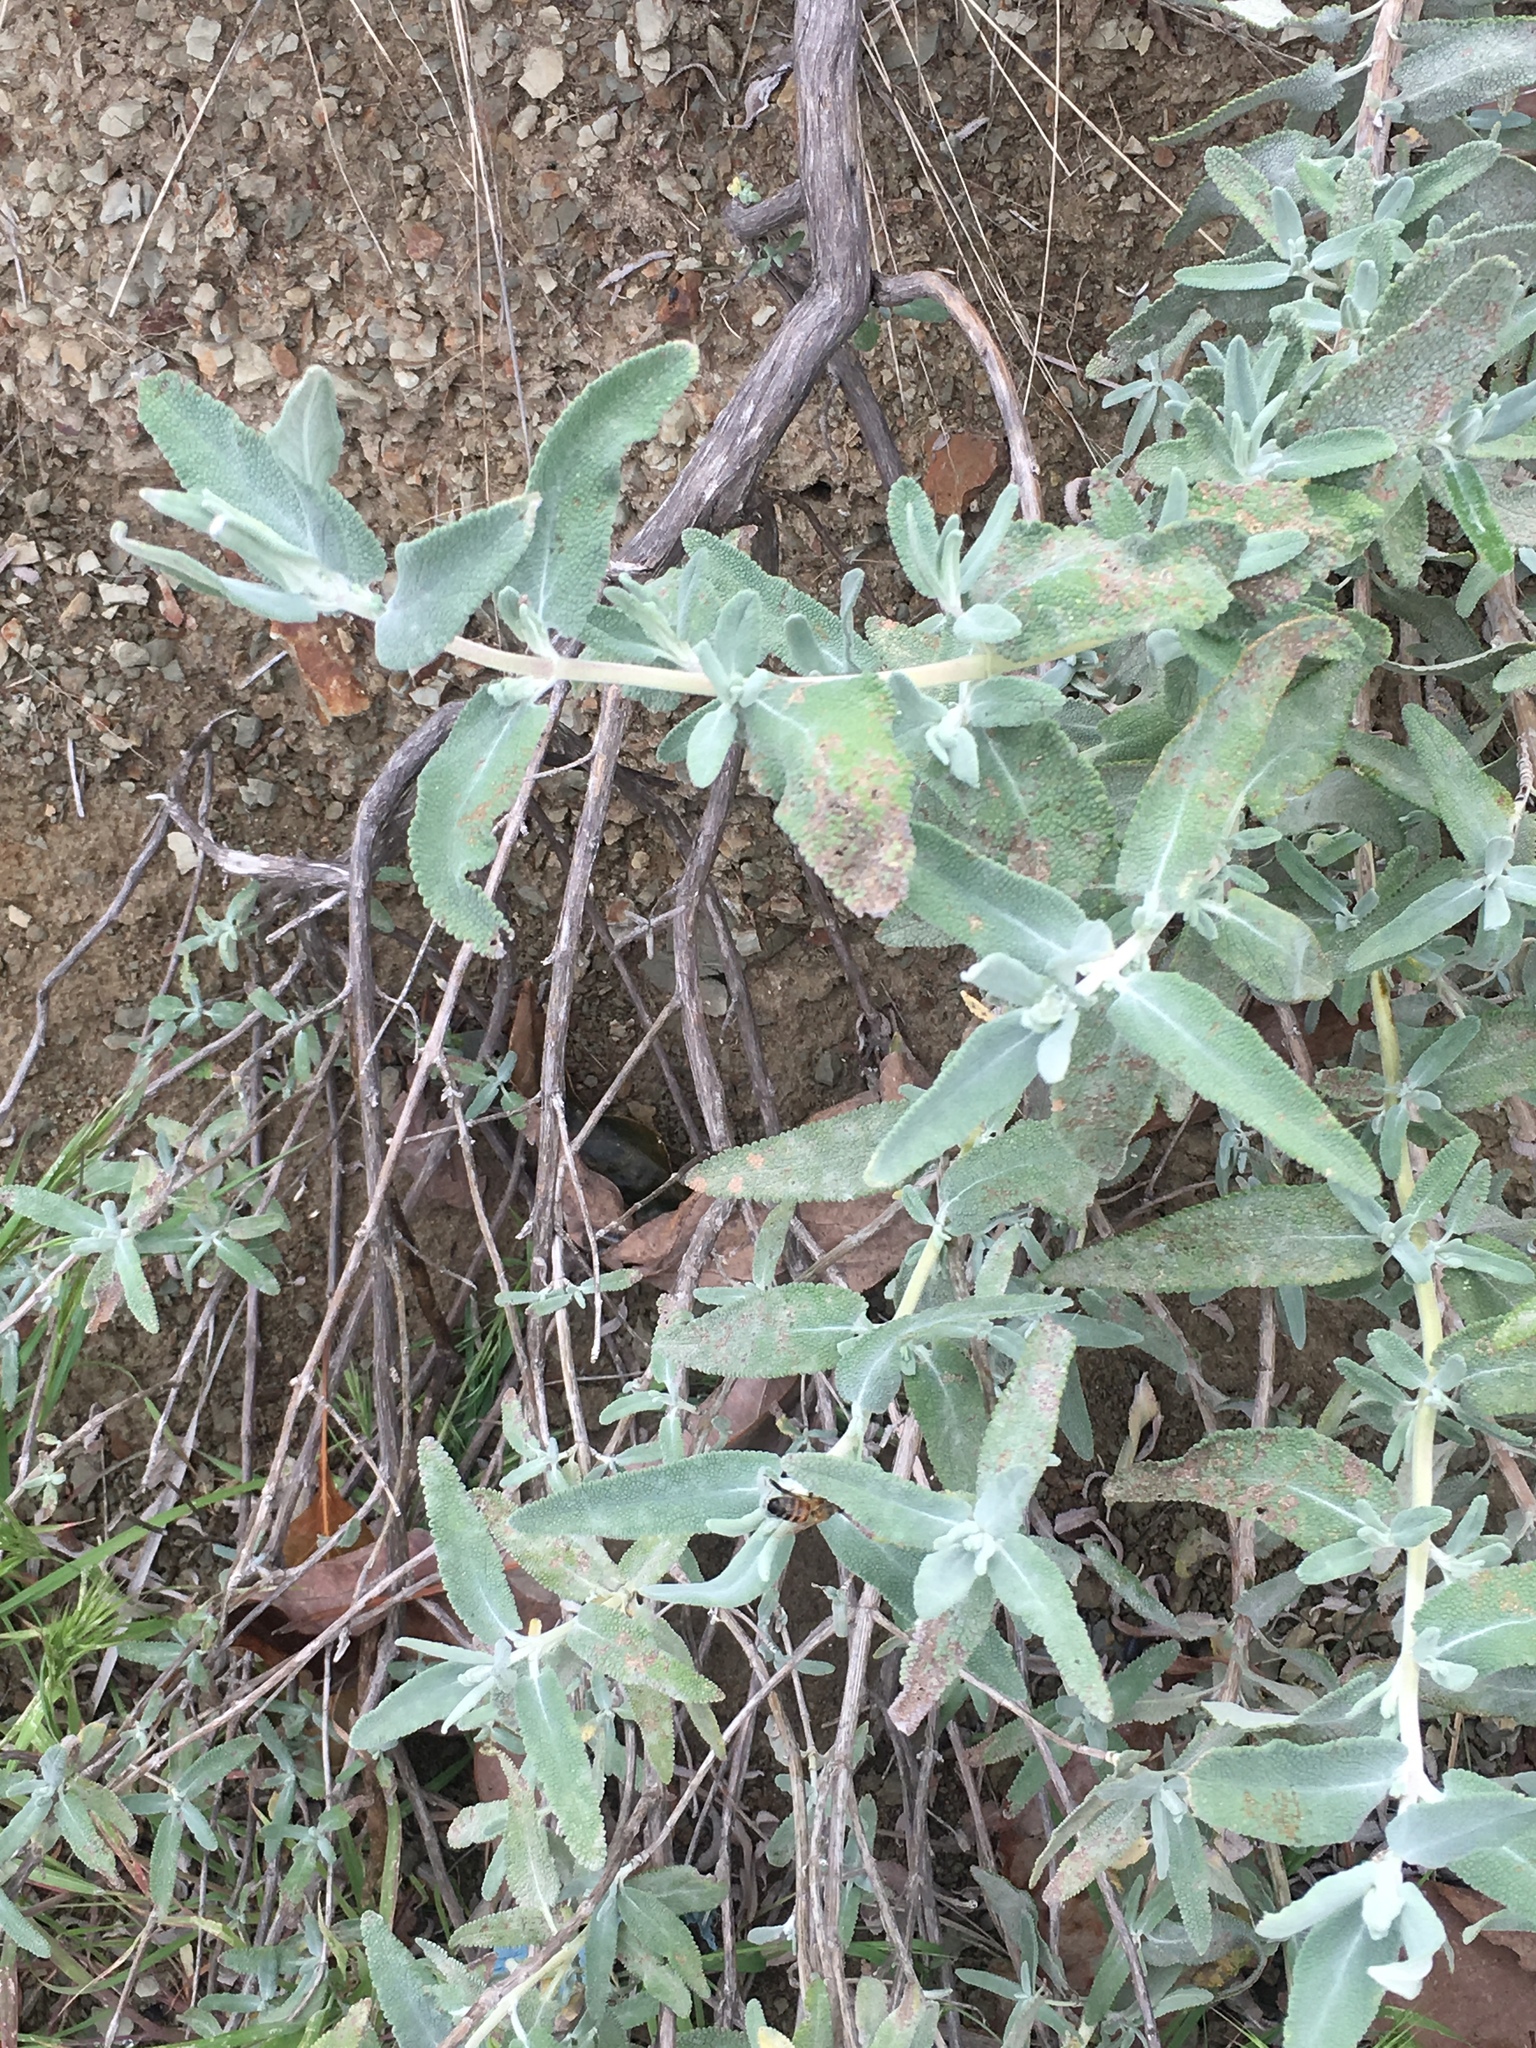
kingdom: Plantae
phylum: Tracheophyta
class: Magnoliopsida
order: Lamiales
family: Lamiaceae
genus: Salvia
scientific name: Salvia leucophylla
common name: Purple sage
